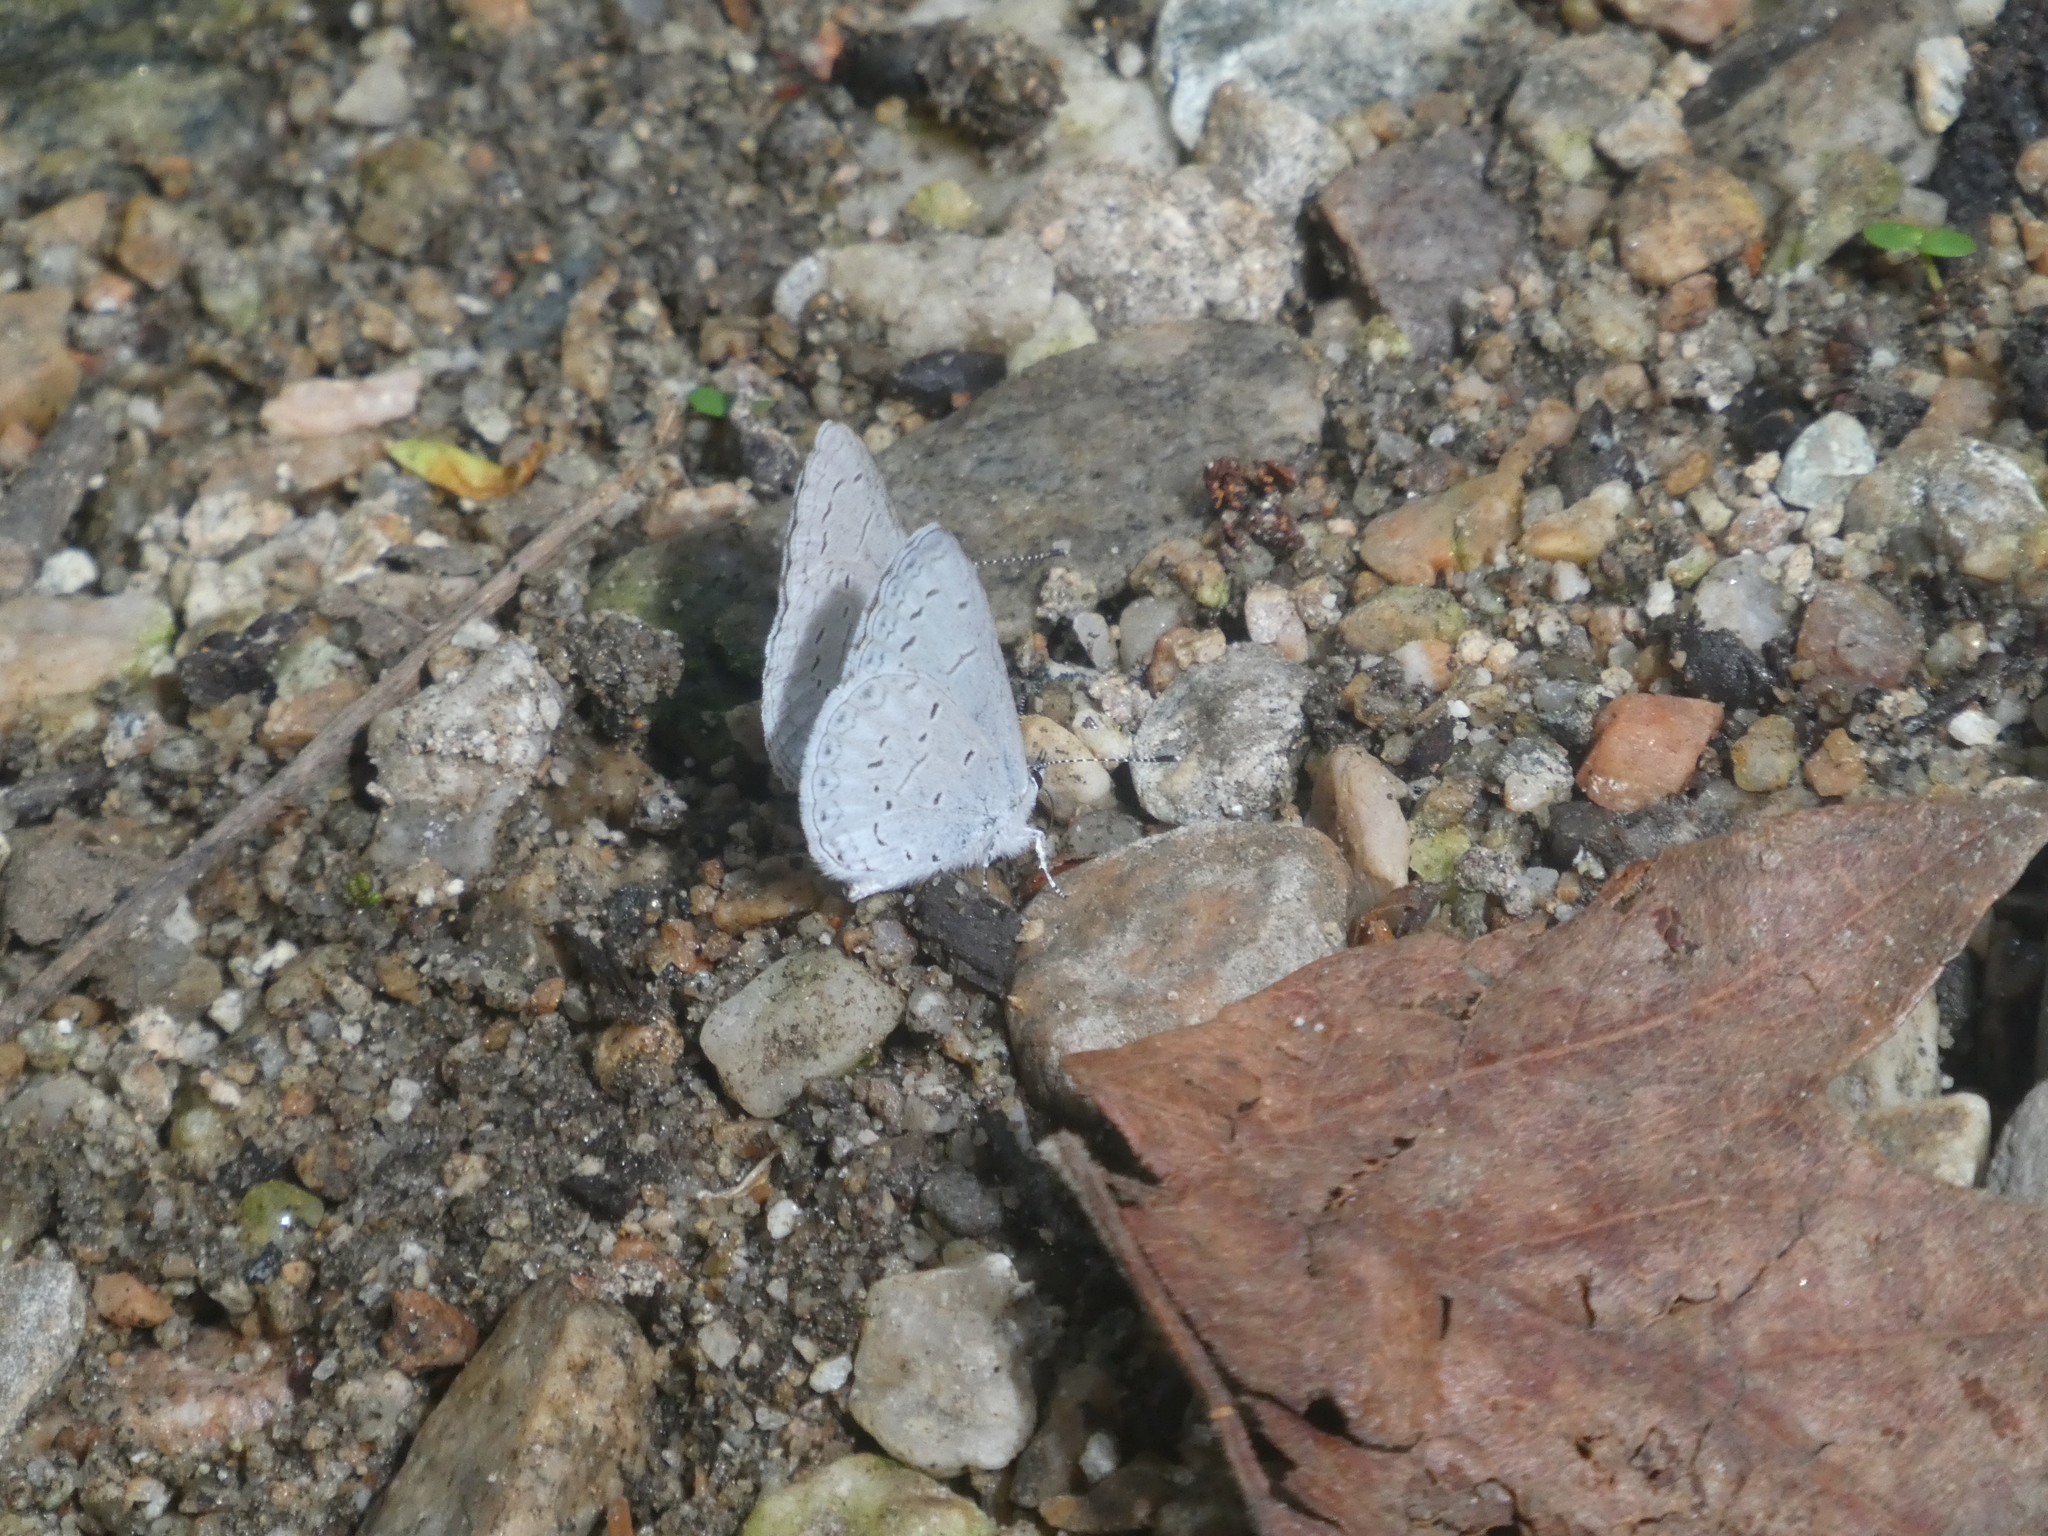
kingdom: Animalia
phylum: Arthropoda
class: Insecta
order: Lepidoptera
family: Lycaenidae
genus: Celastrina
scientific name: Celastrina ladon
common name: Spring azure
